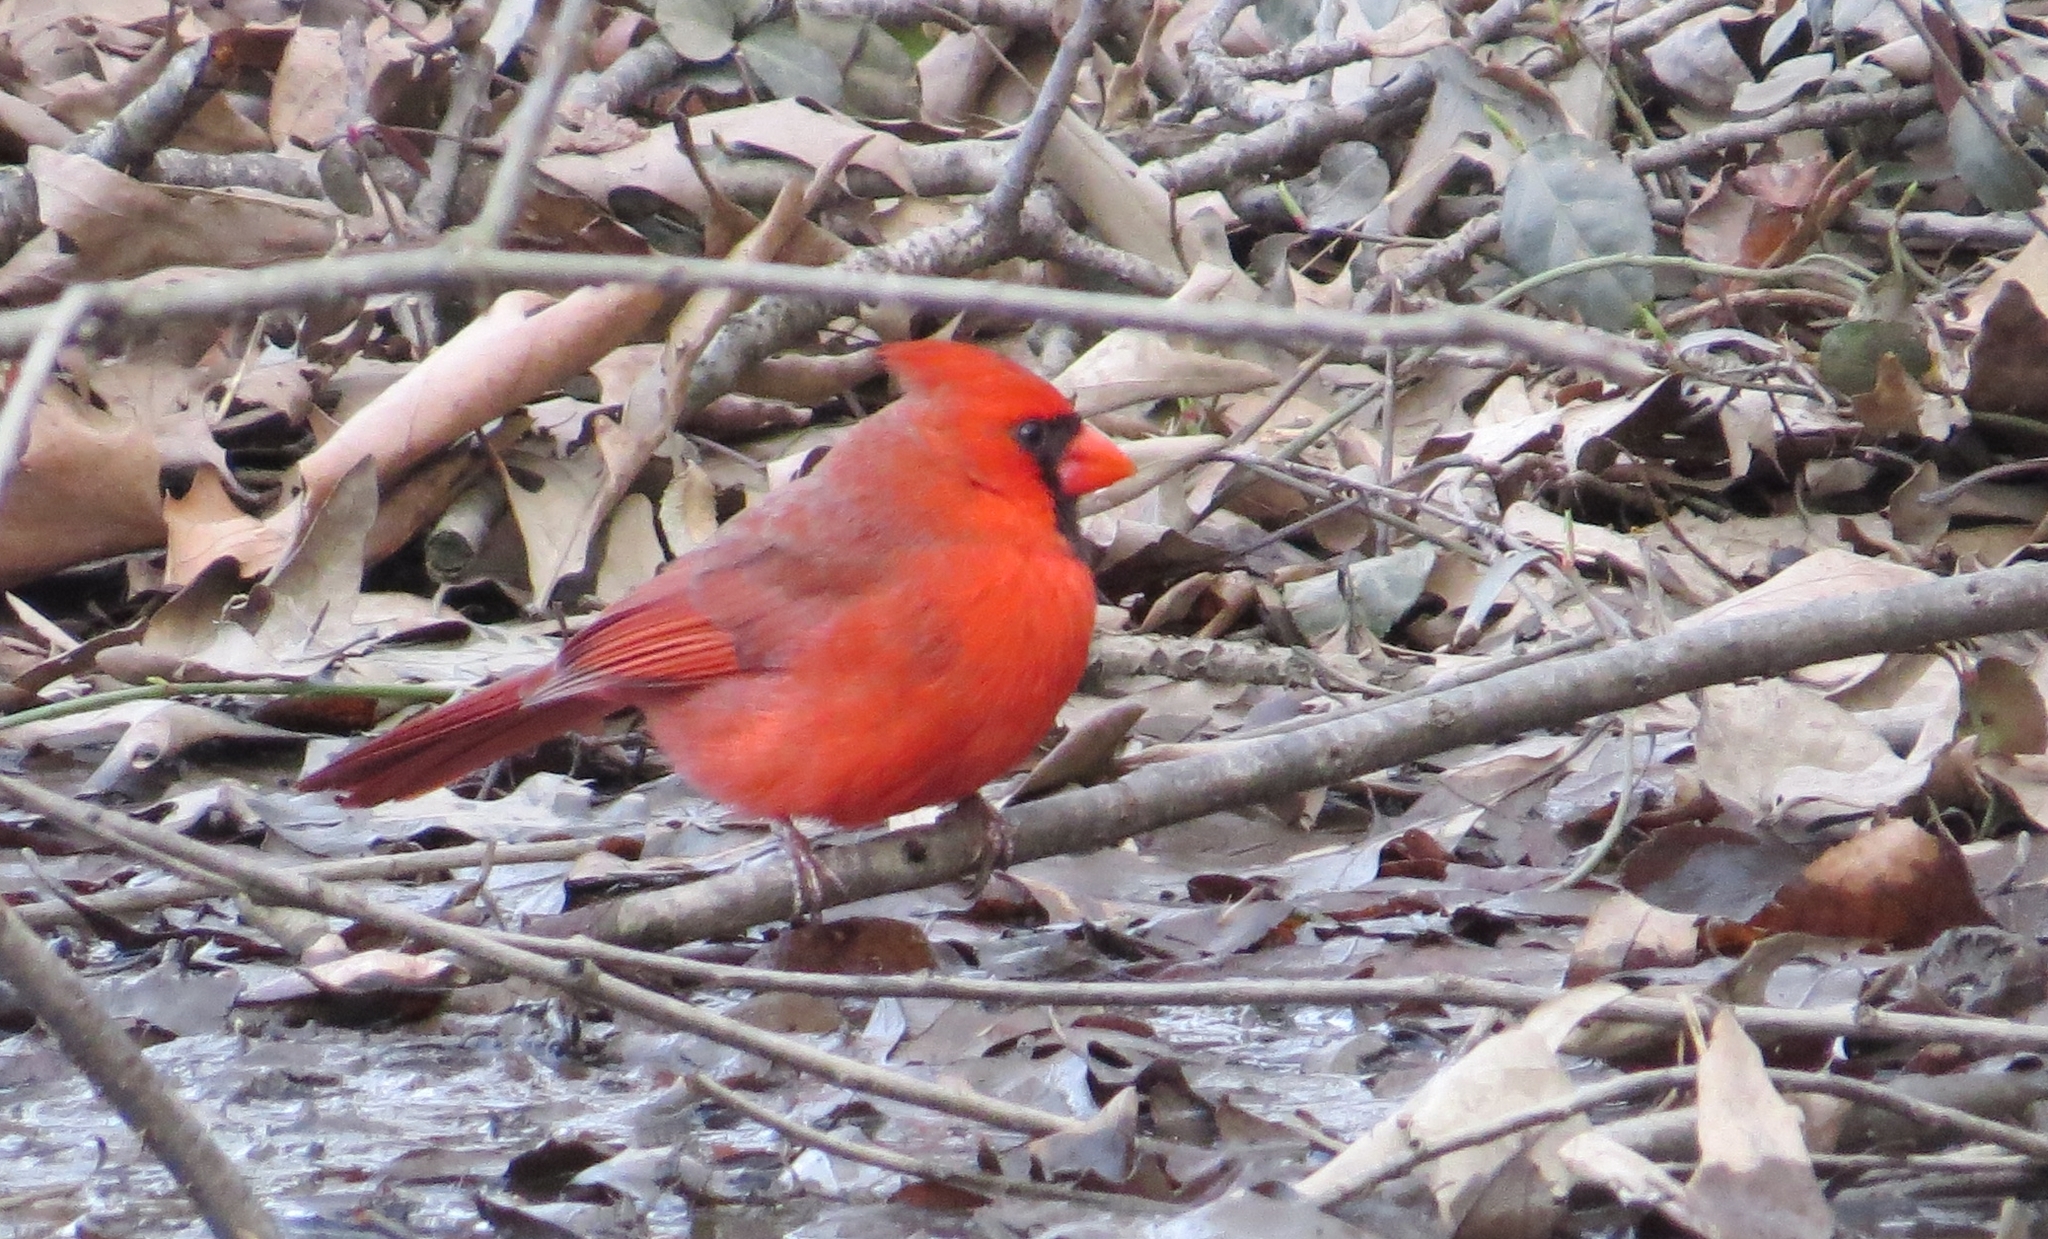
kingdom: Animalia
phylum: Chordata
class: Aves
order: Passeriformes
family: Cardinalidae
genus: Cardinalis
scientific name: Cardinalis cardinalis
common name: Northern cardinal
